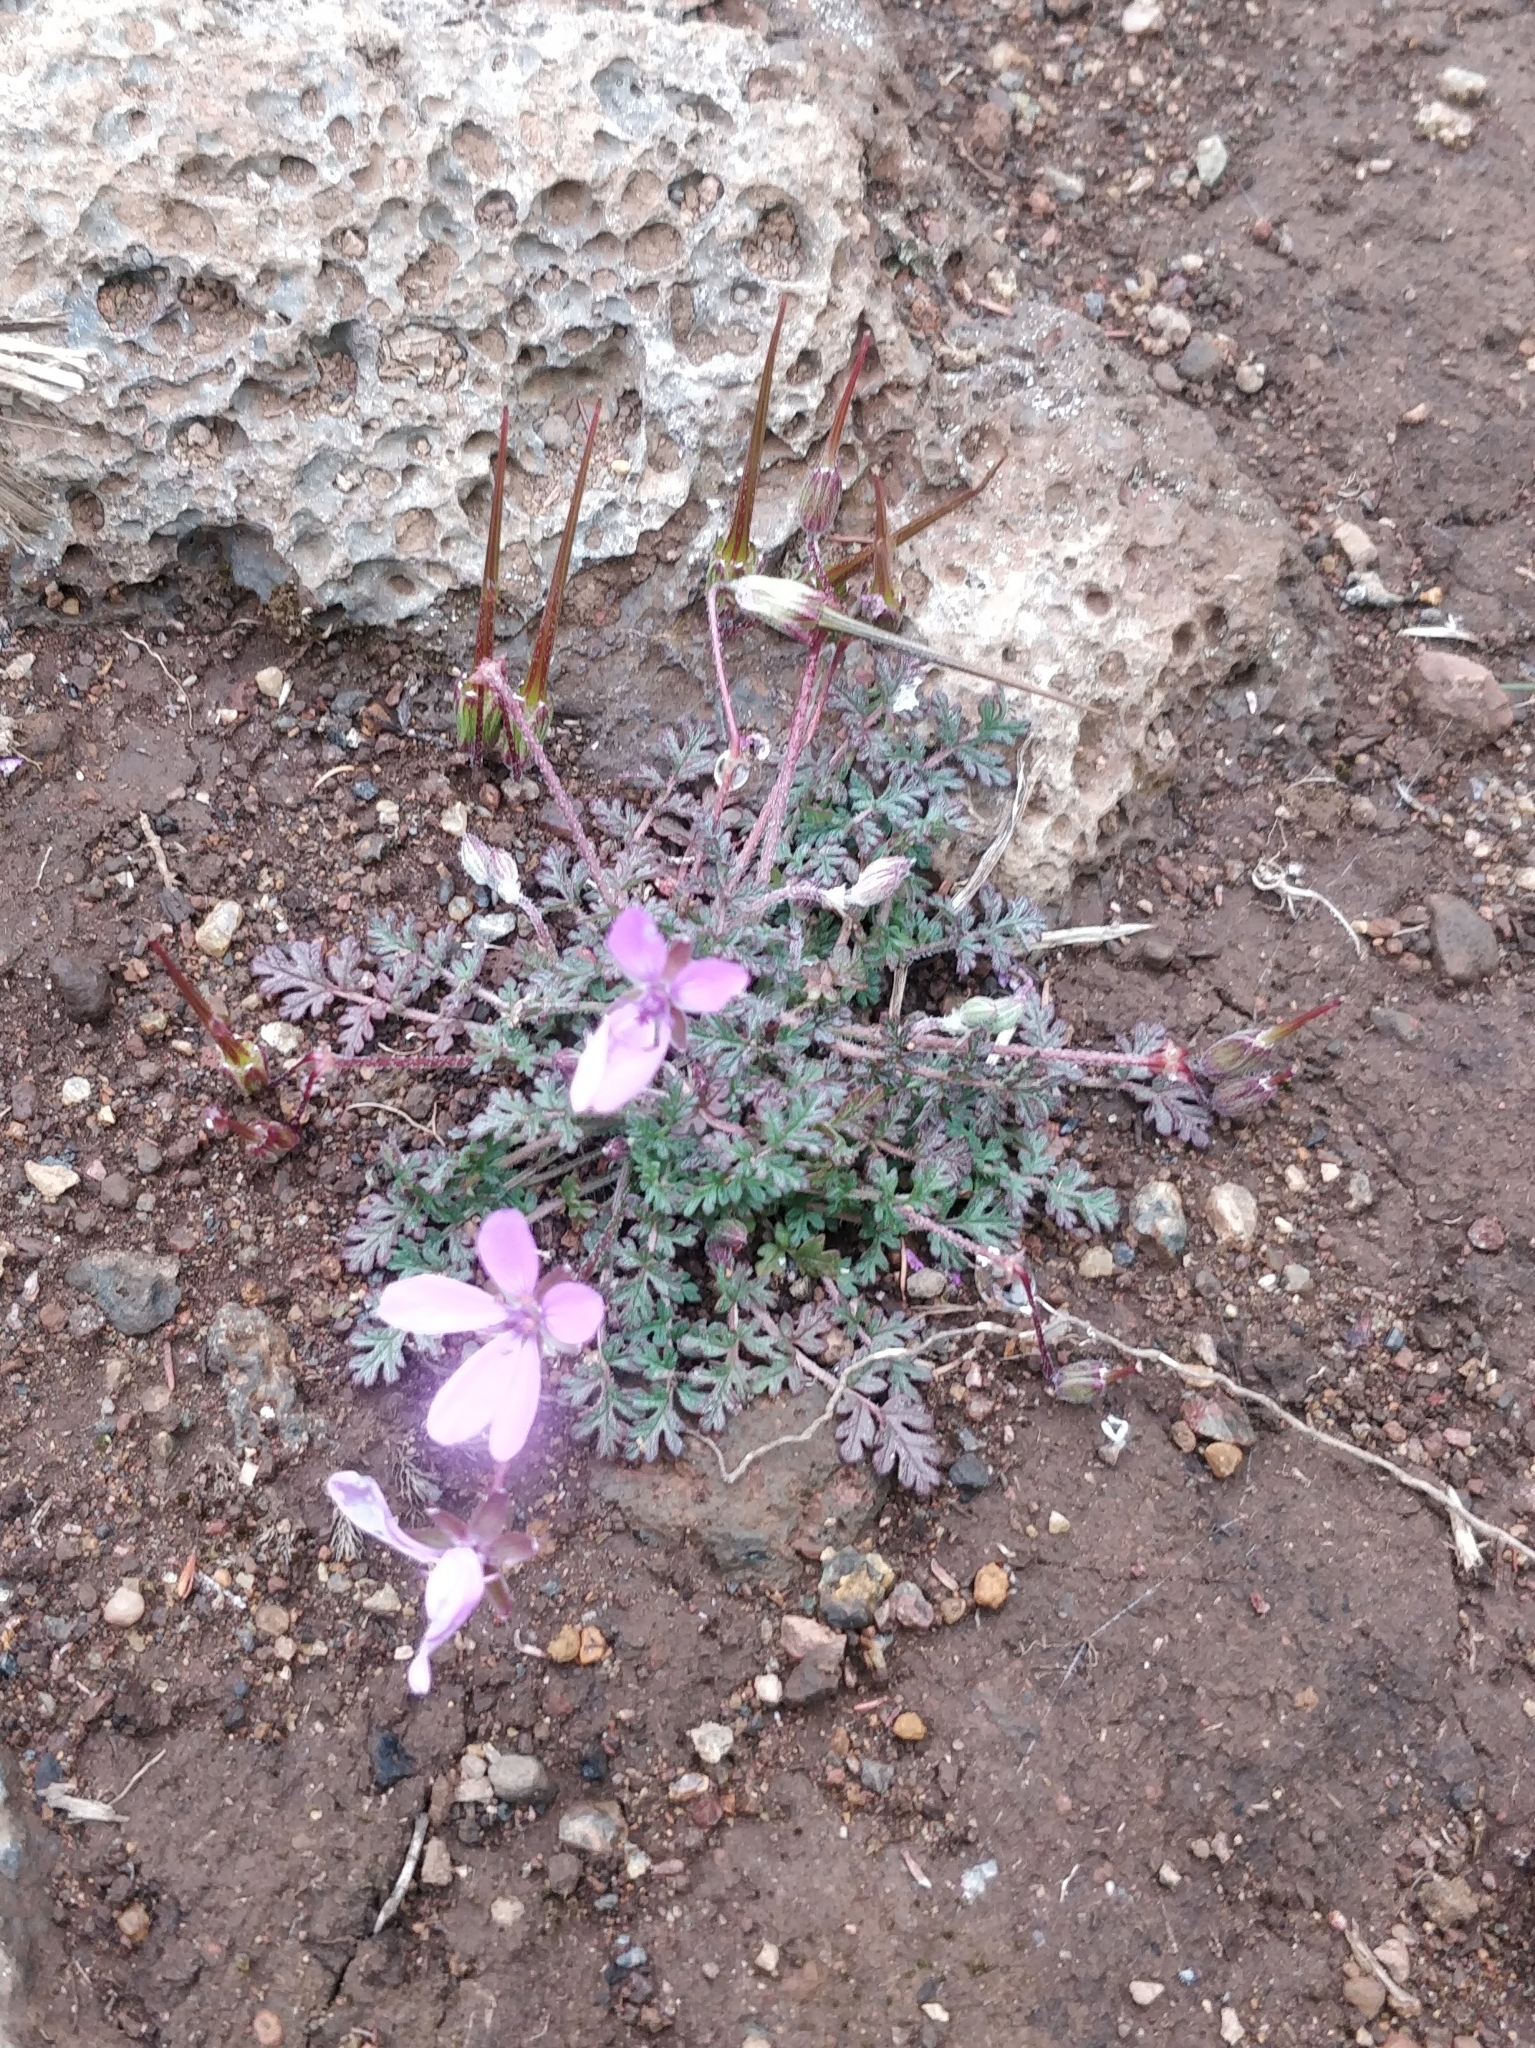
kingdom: Plantae
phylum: Tracheophyta
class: Magnoliopsida
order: Geraniales
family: Geraniaceae
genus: Erodium
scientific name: Erodium cicutarium
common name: Common stork's-bill
